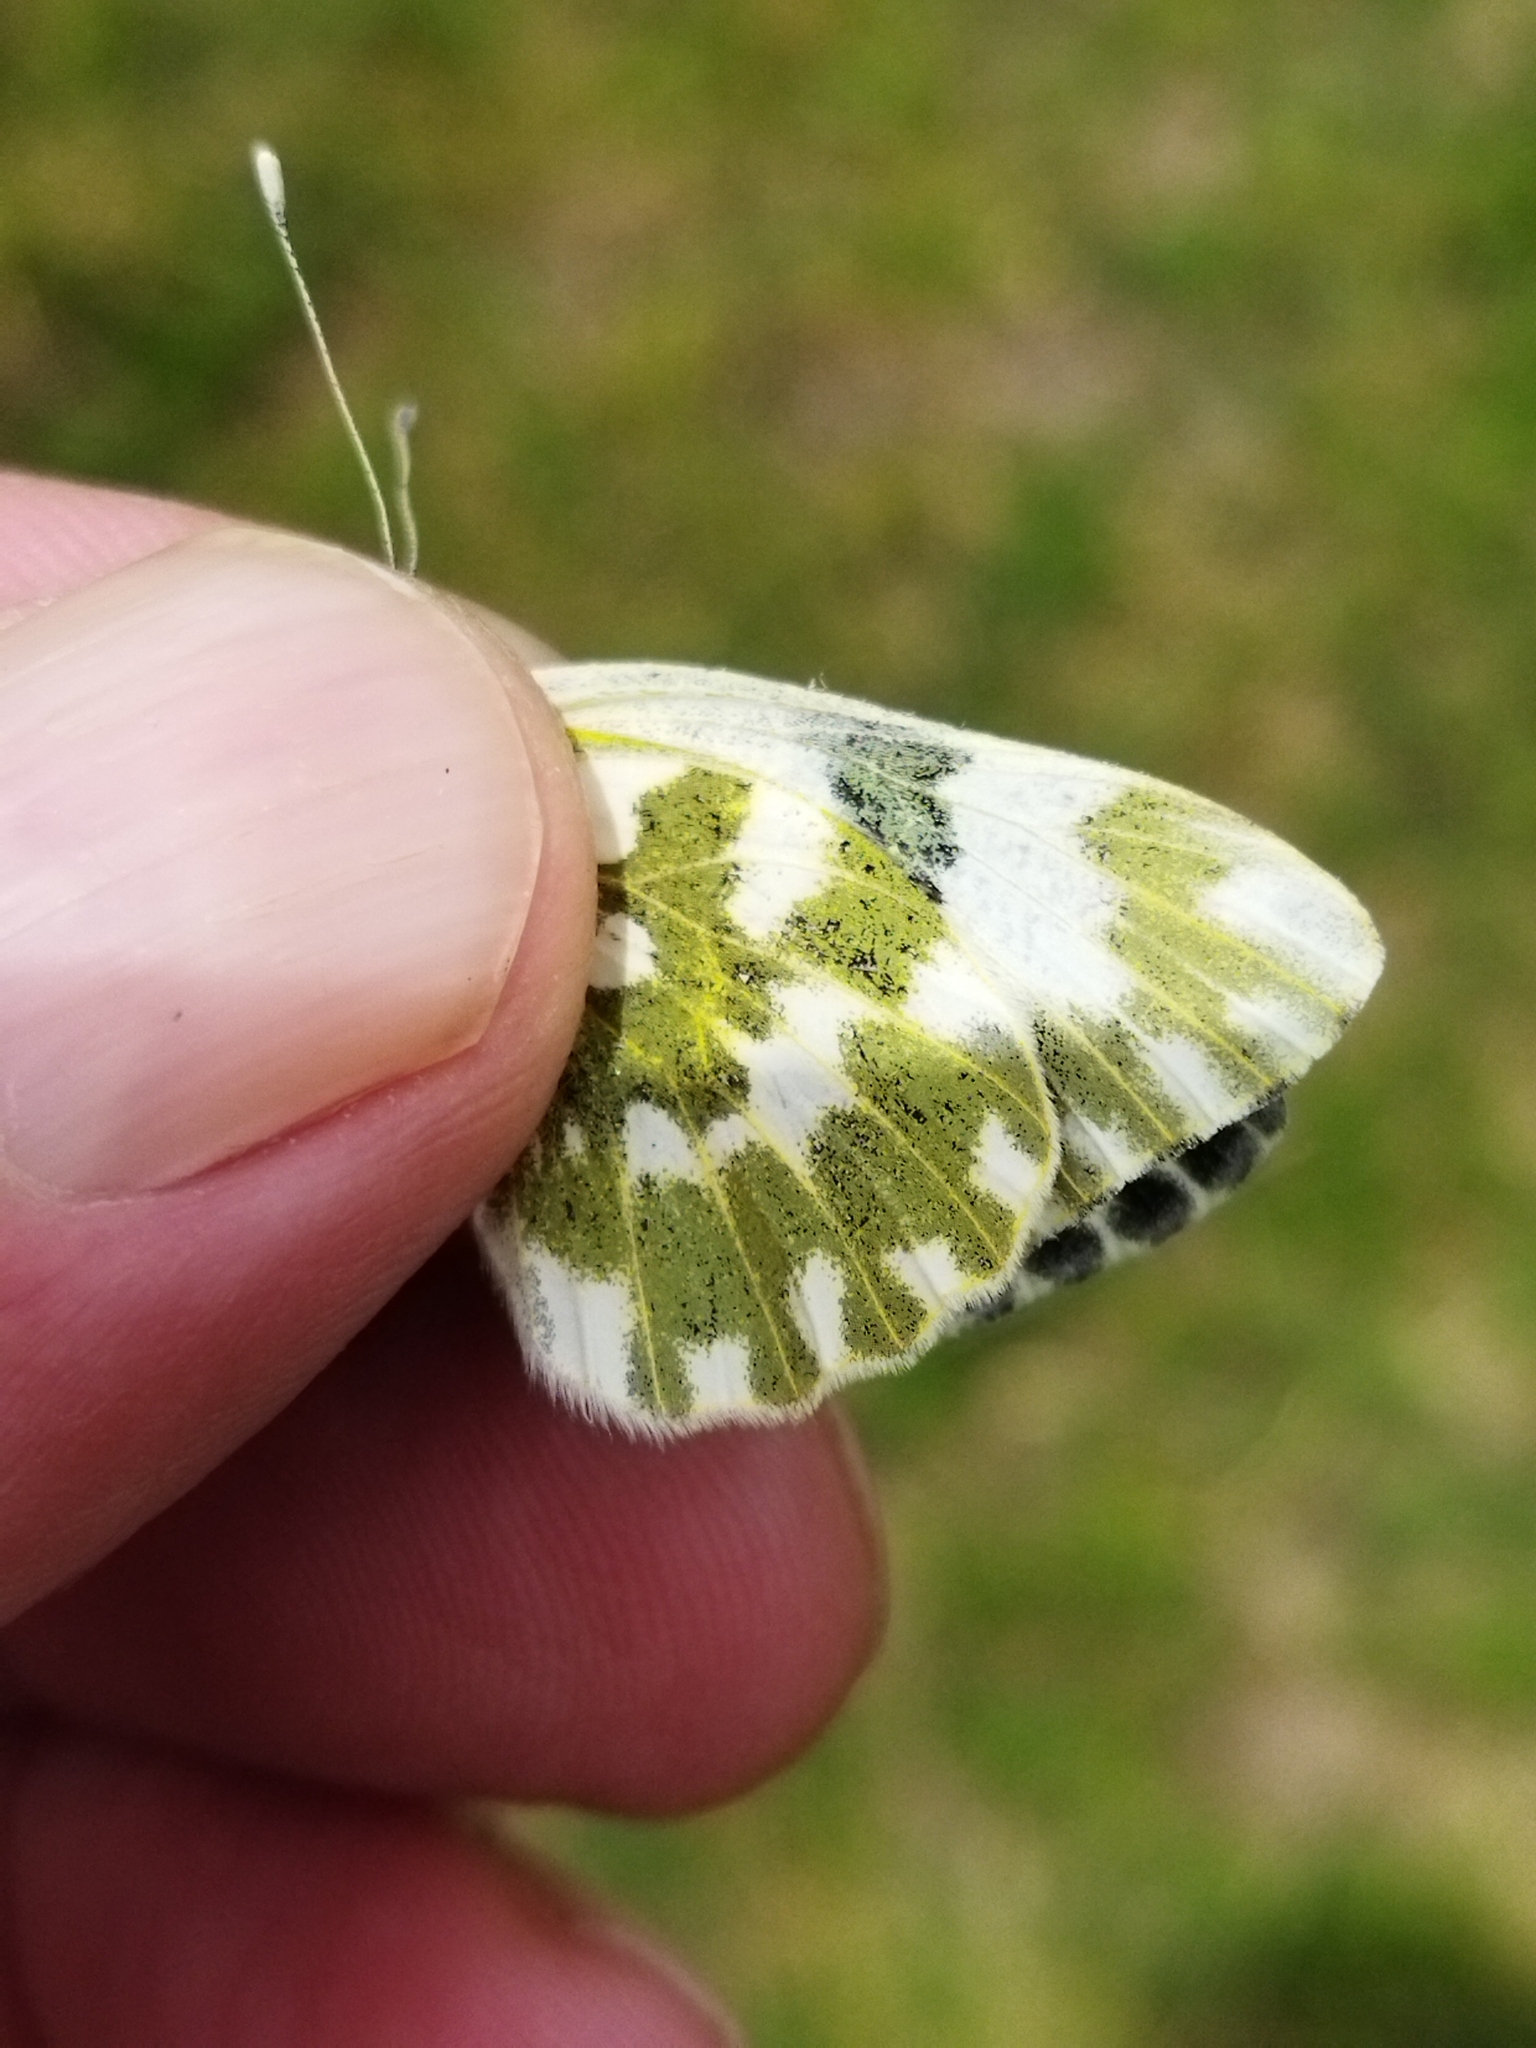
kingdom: Animalia
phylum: Arthropoda
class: Insecta
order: Lepidoptera
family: Pieridae
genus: Pontia
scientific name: Pontia edusa
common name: Eastern bath white
